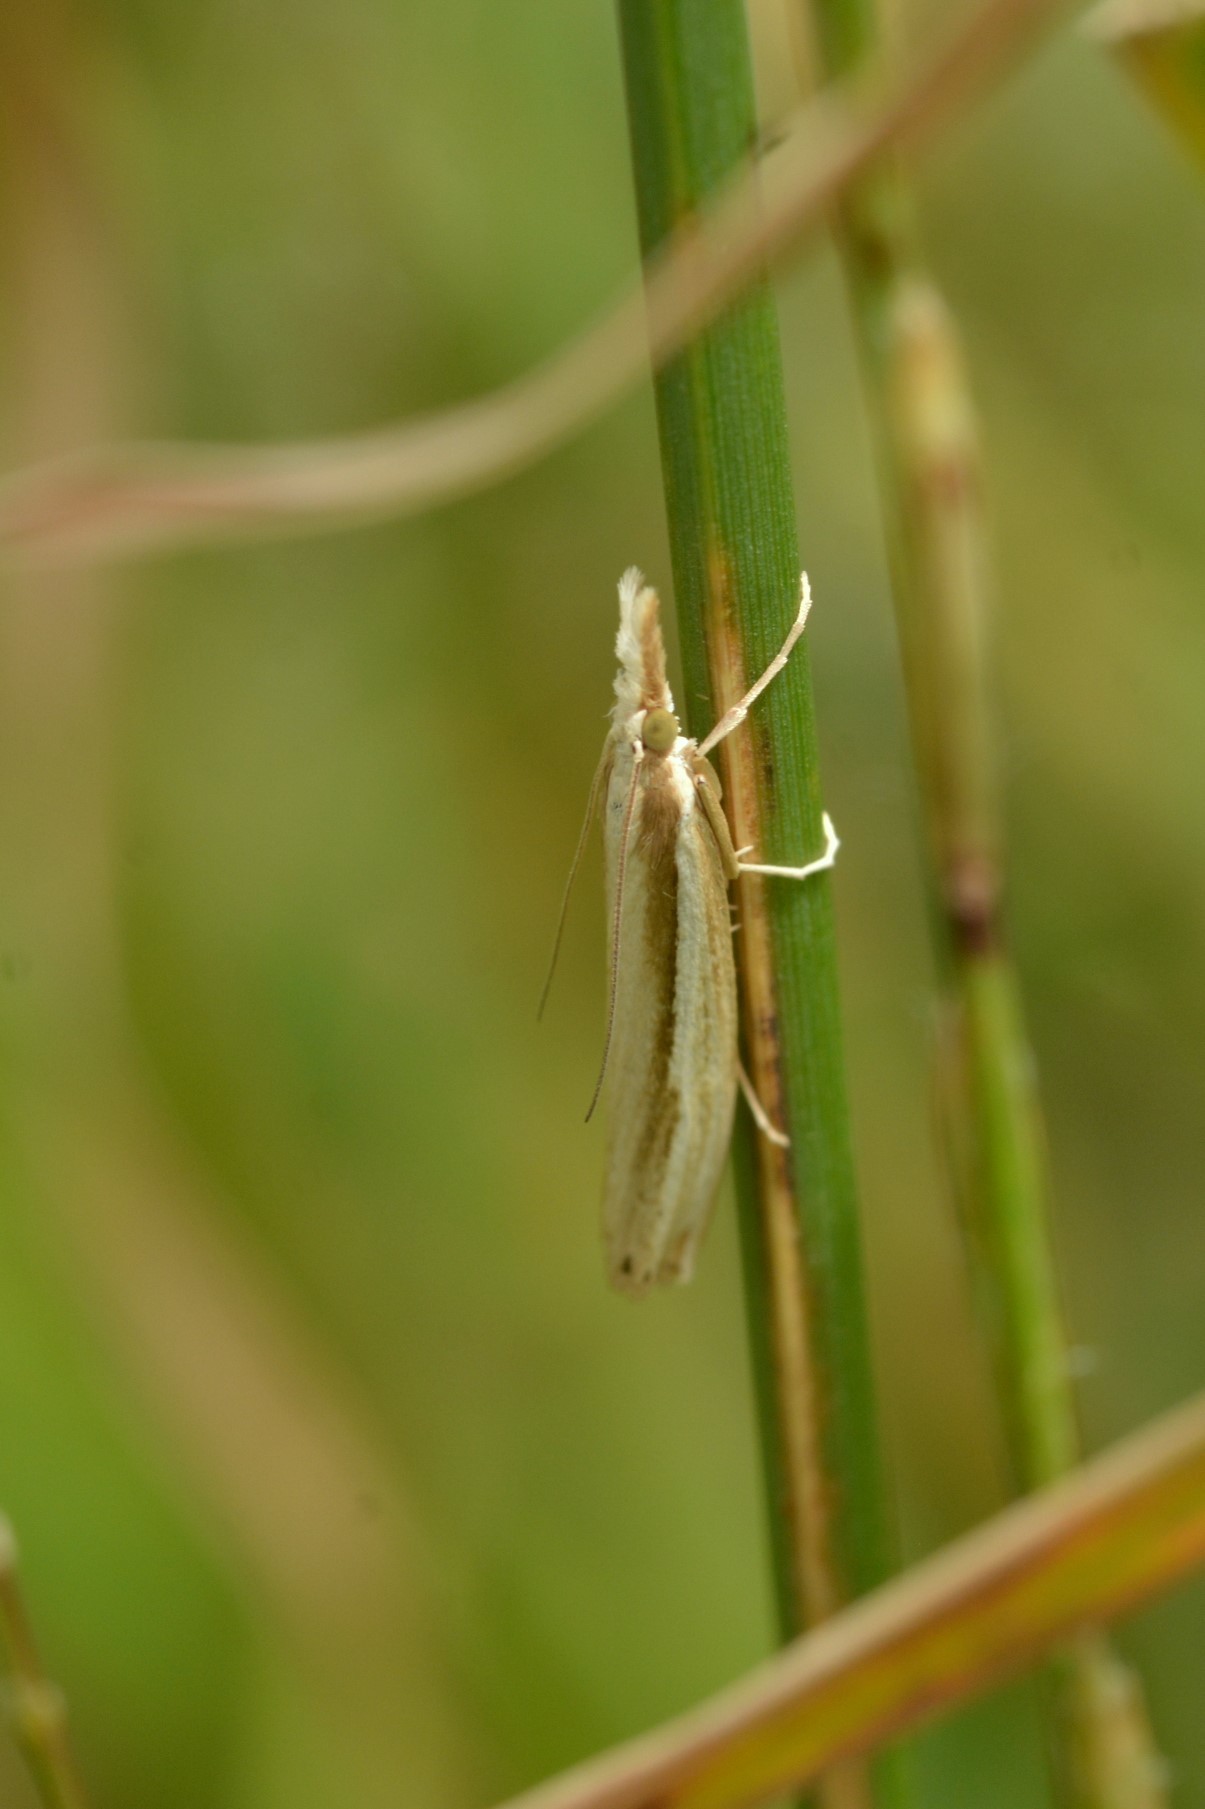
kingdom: Animalia
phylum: Arthropoda
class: Insecta
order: Lepidoptera
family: Crambidae
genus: Orocrambus
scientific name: Orocrambus ramosellus
